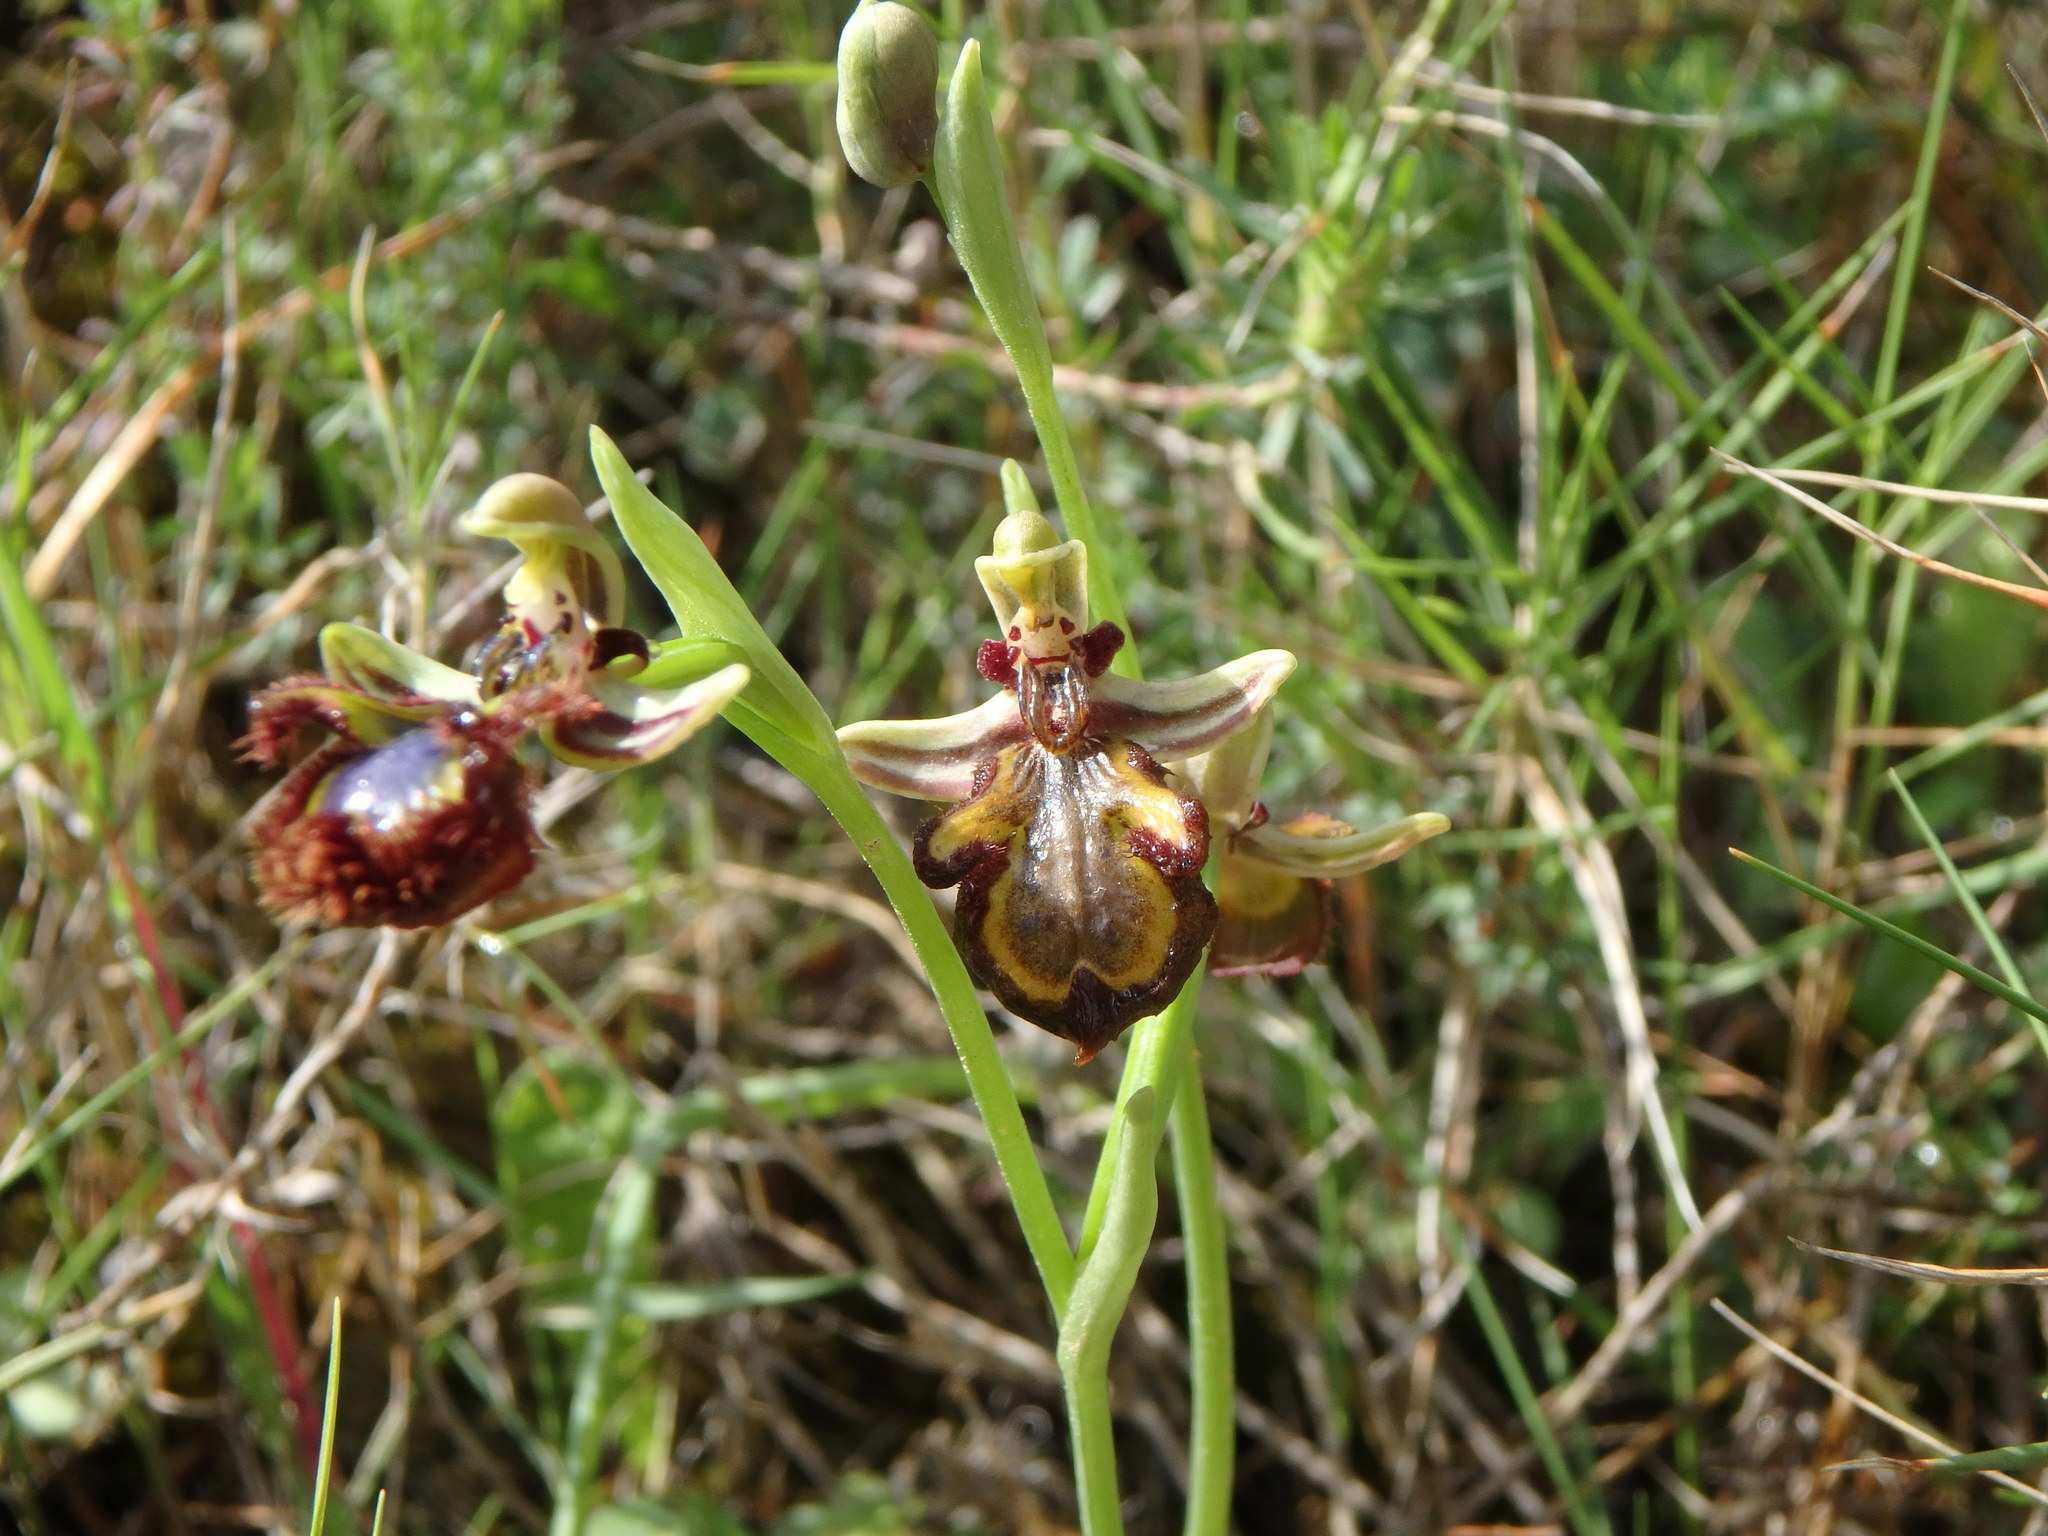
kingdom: Plantae
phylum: Tracheophyta
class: Liliopsida
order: Asparagales
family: Orchidaceae
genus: Ophrys
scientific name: Ophrys speculum
